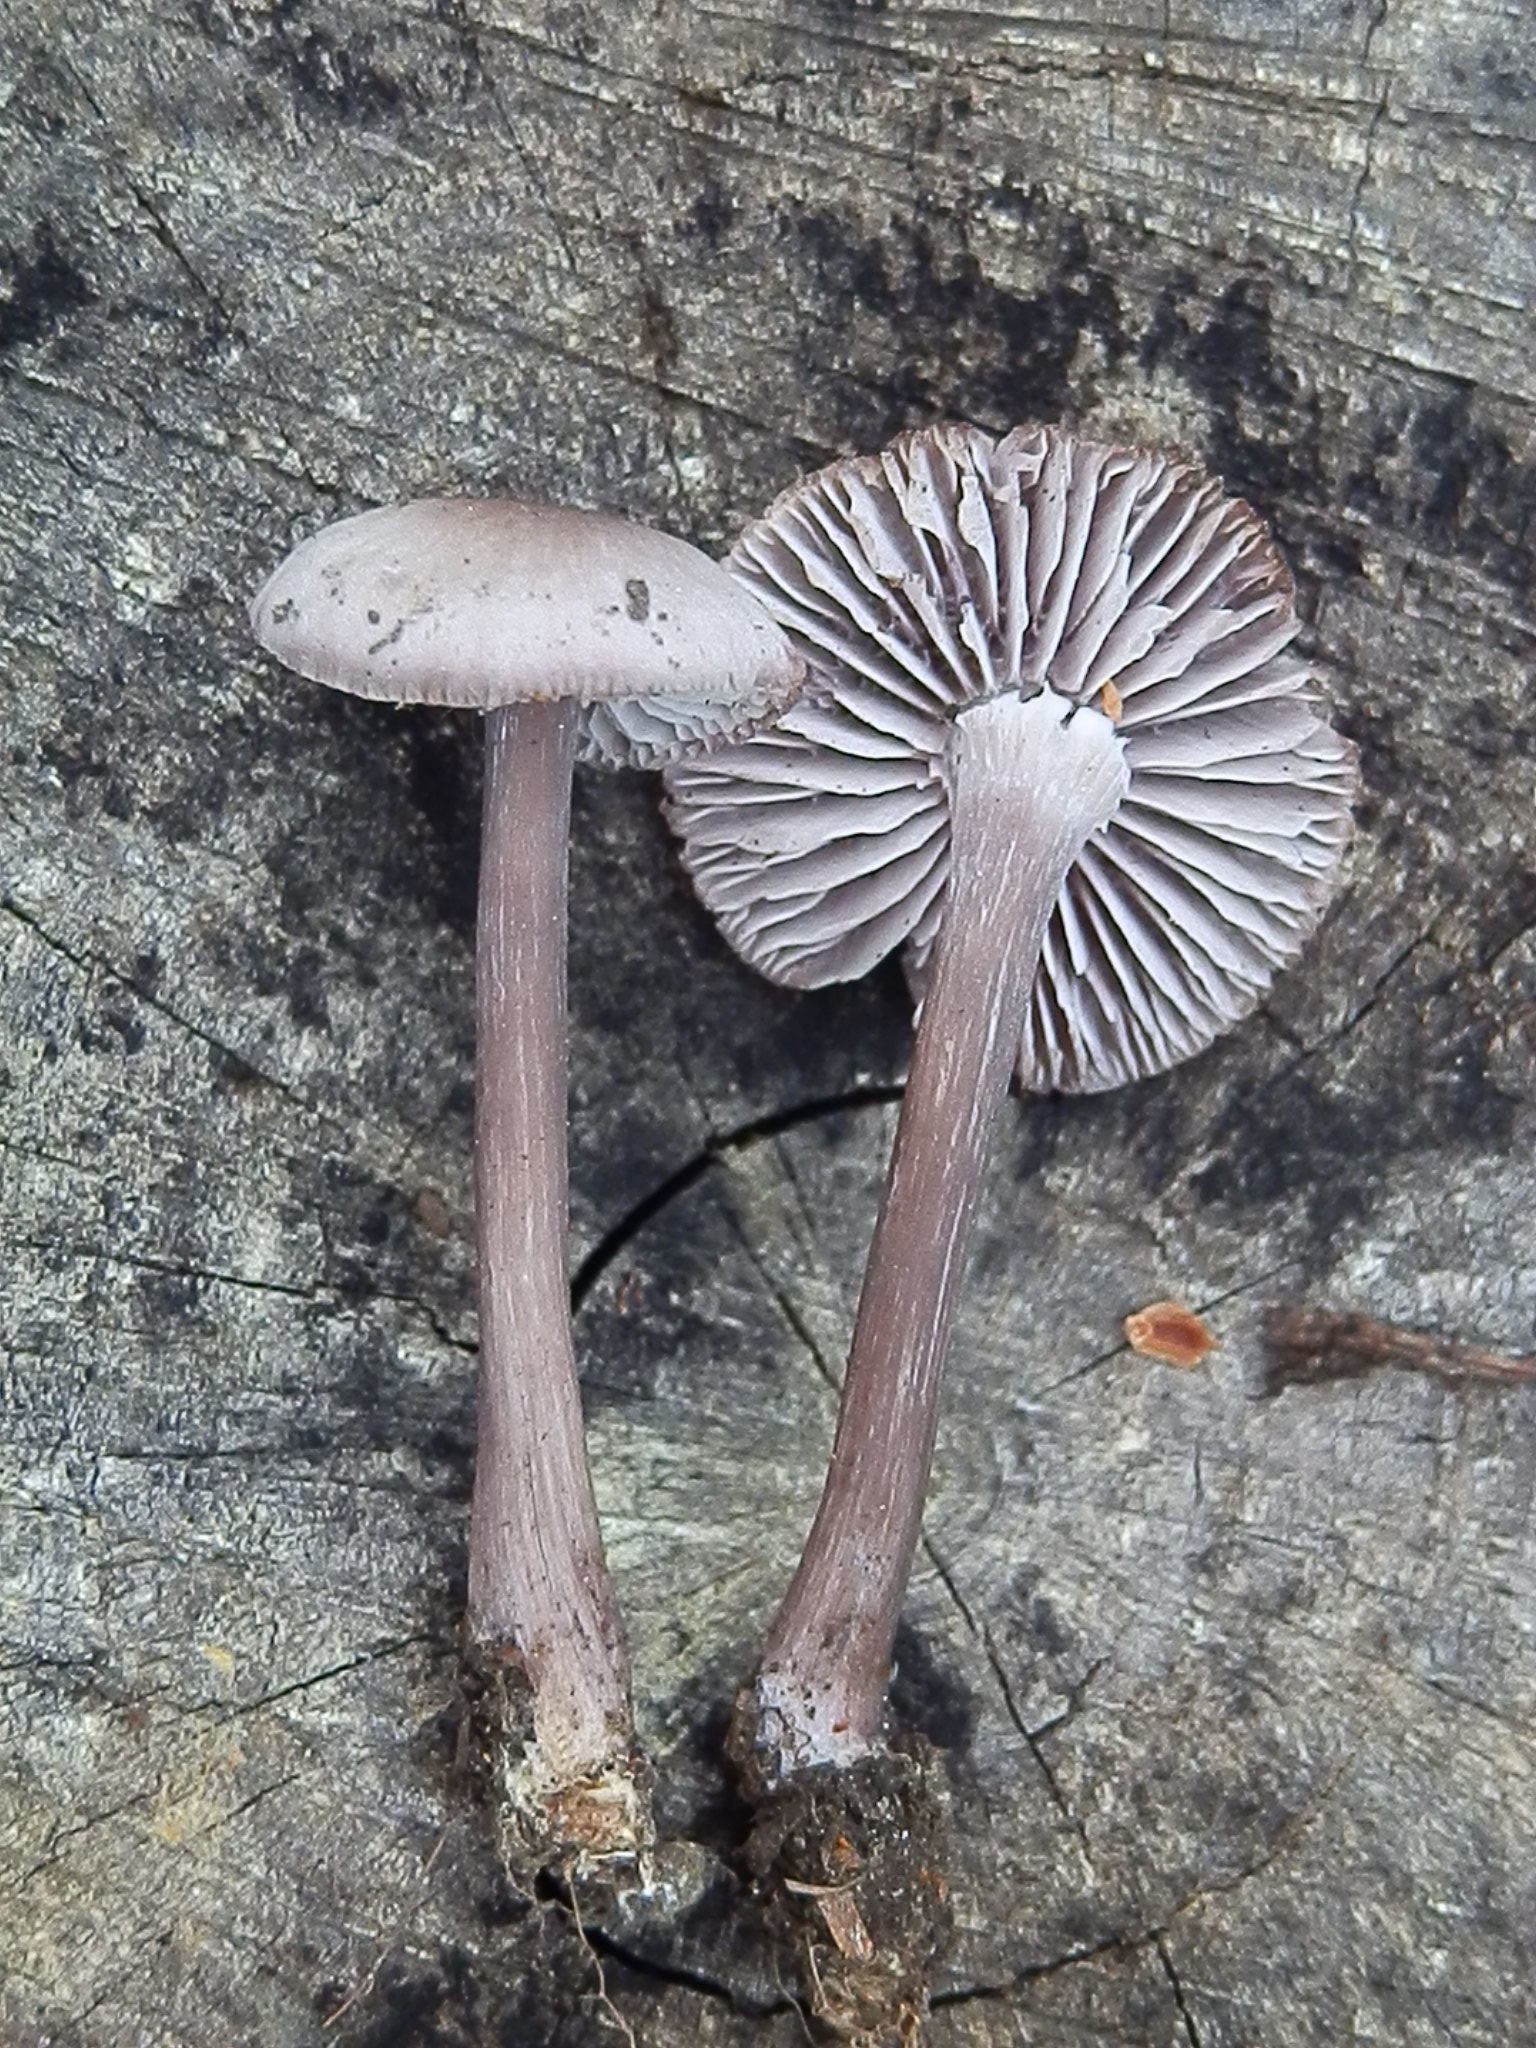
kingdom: Fungi
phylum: Basidiomycota
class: Agaricomycetes
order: Agaricales
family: Mycenaceae
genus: Mycena
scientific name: Mycena pura
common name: Lilac bonnet
